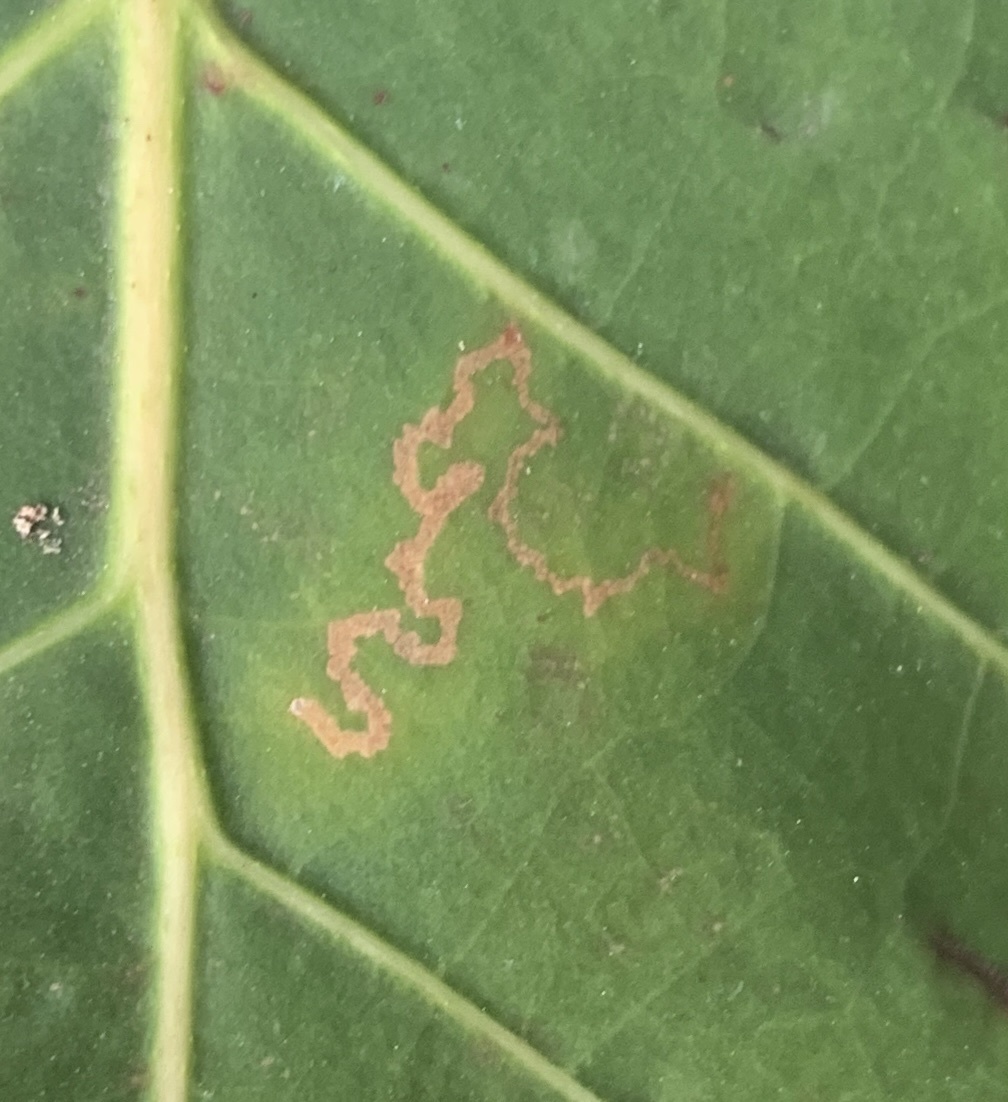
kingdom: Animalia
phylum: Arthropoda
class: Insecta
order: Lepidoptera
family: Nepticulidae
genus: Enteucha
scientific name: Enteucha gilvafascia
